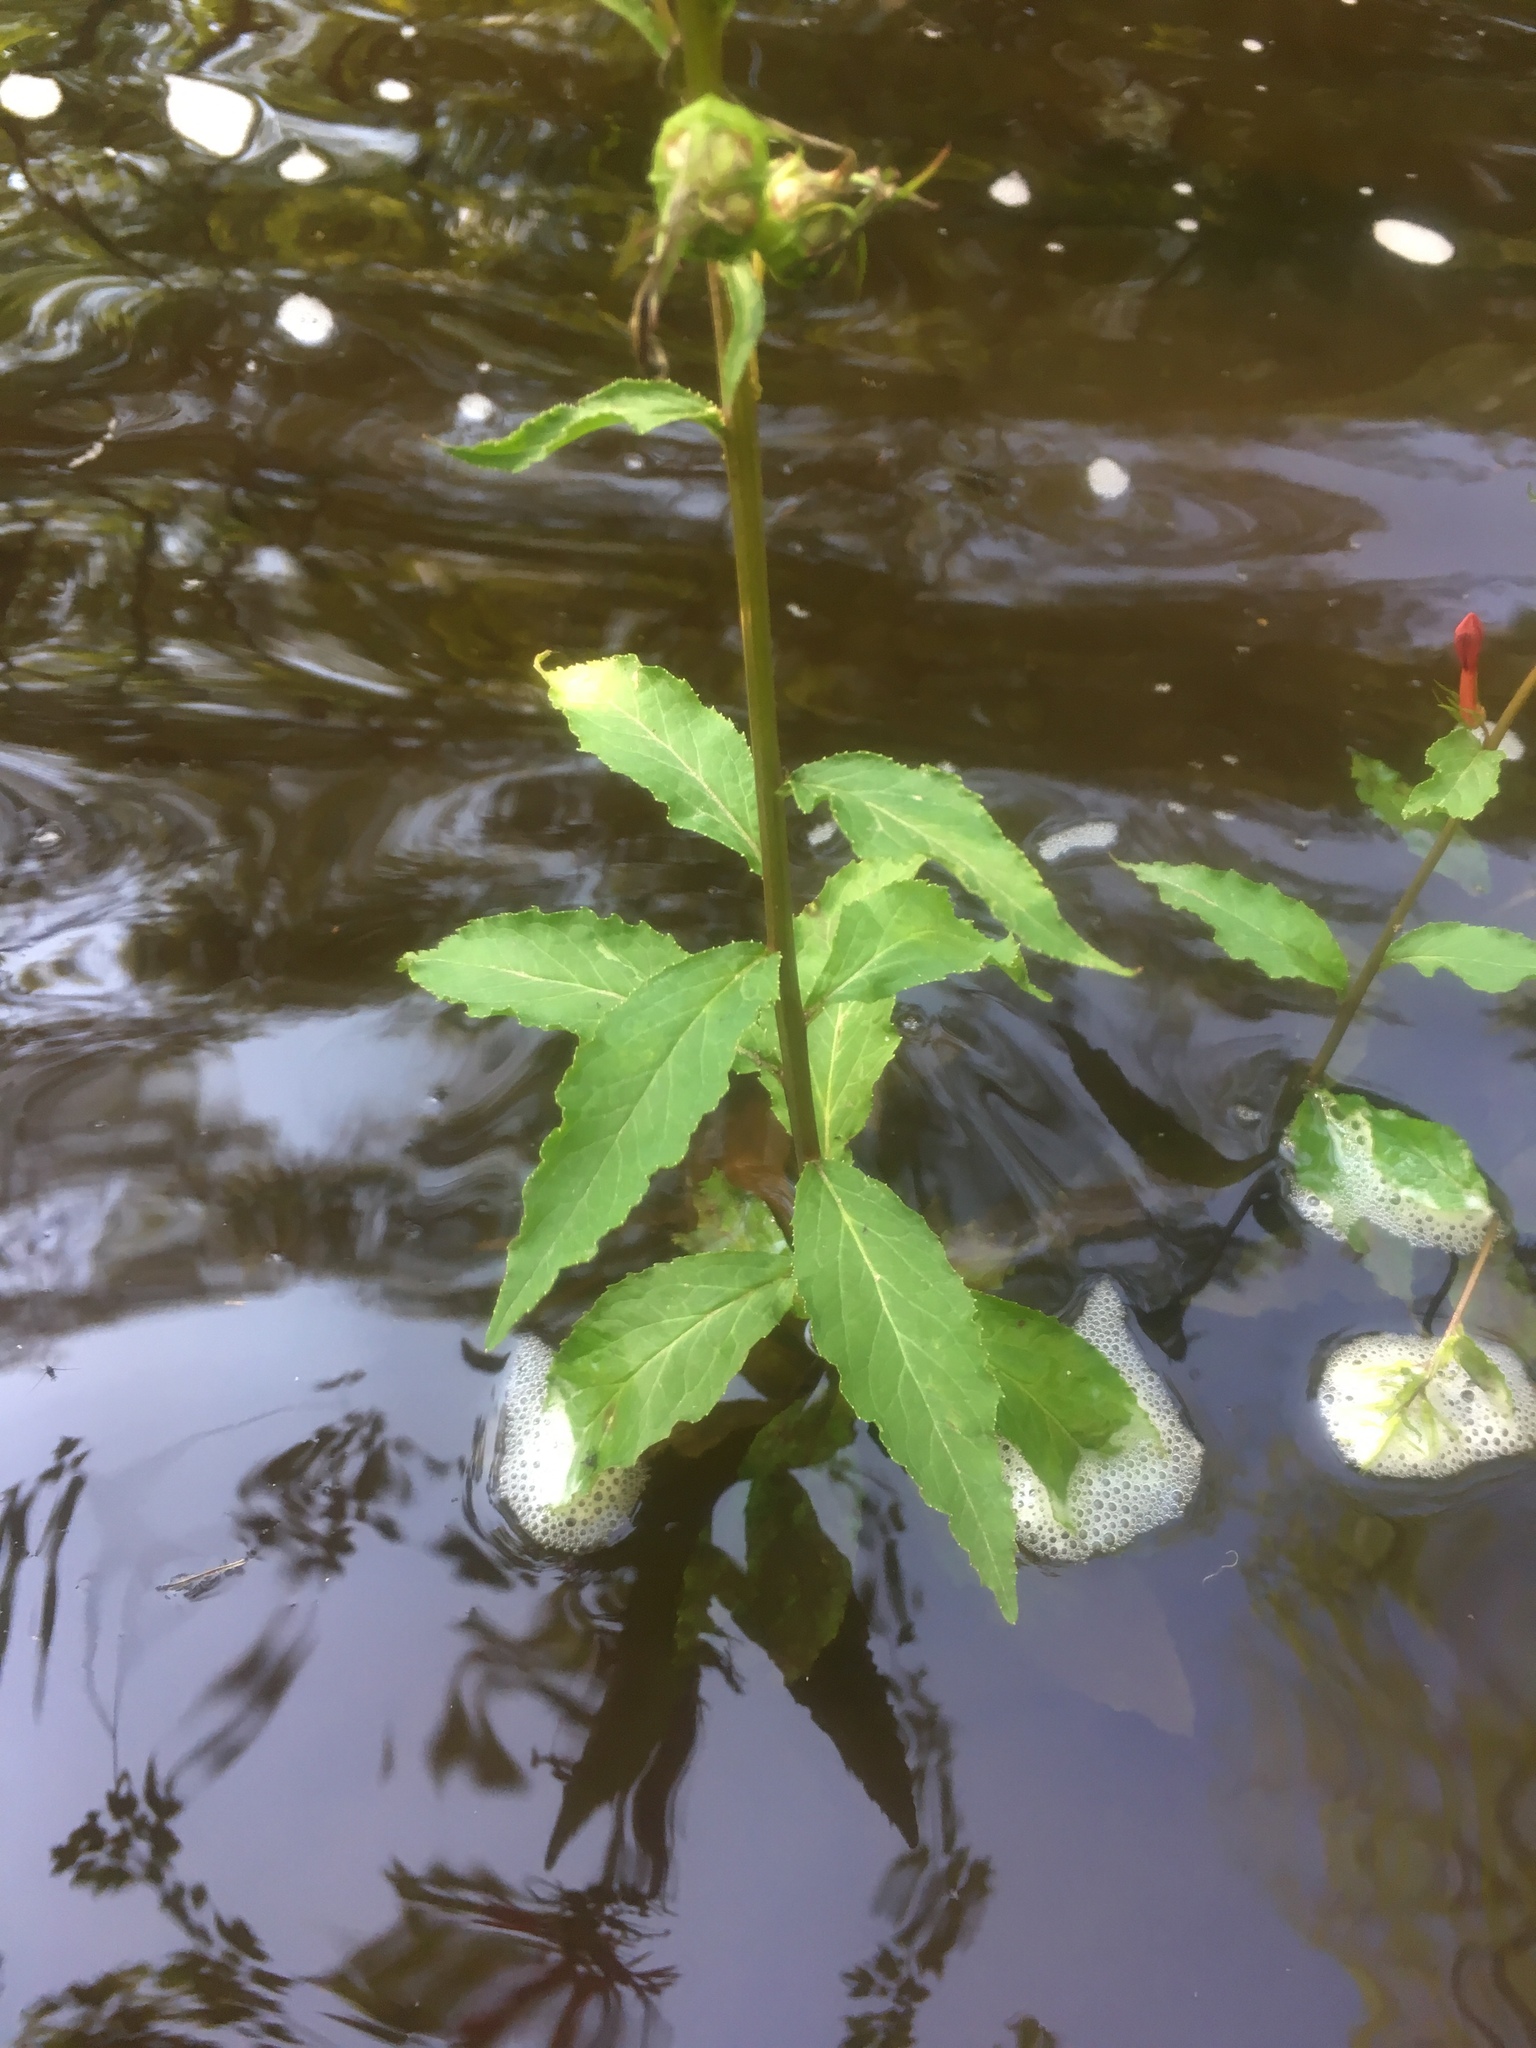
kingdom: Plantae
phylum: Tracheophyta
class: Magnoliopsida
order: Asterales
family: Campanulaceae
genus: Lobelia
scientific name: Lobelia cardinalis
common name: Cardinal flower
